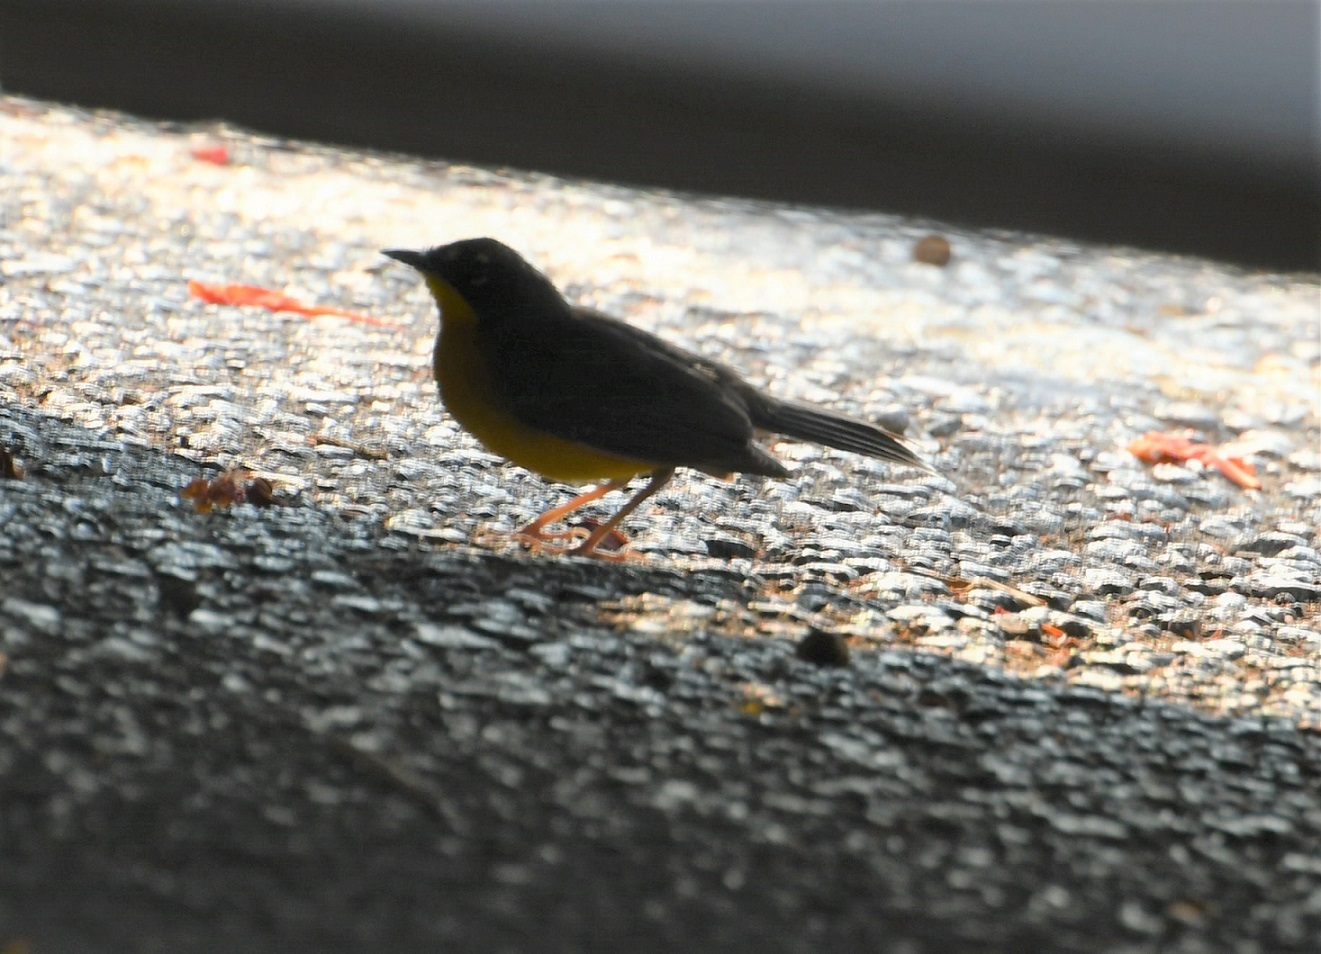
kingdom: Animalia
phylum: Chordata
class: Aves
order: Passeriformes
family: Parulidae
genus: Basileuterus
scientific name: Basileuterus lachrymosus
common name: Fan-tailed warbler
